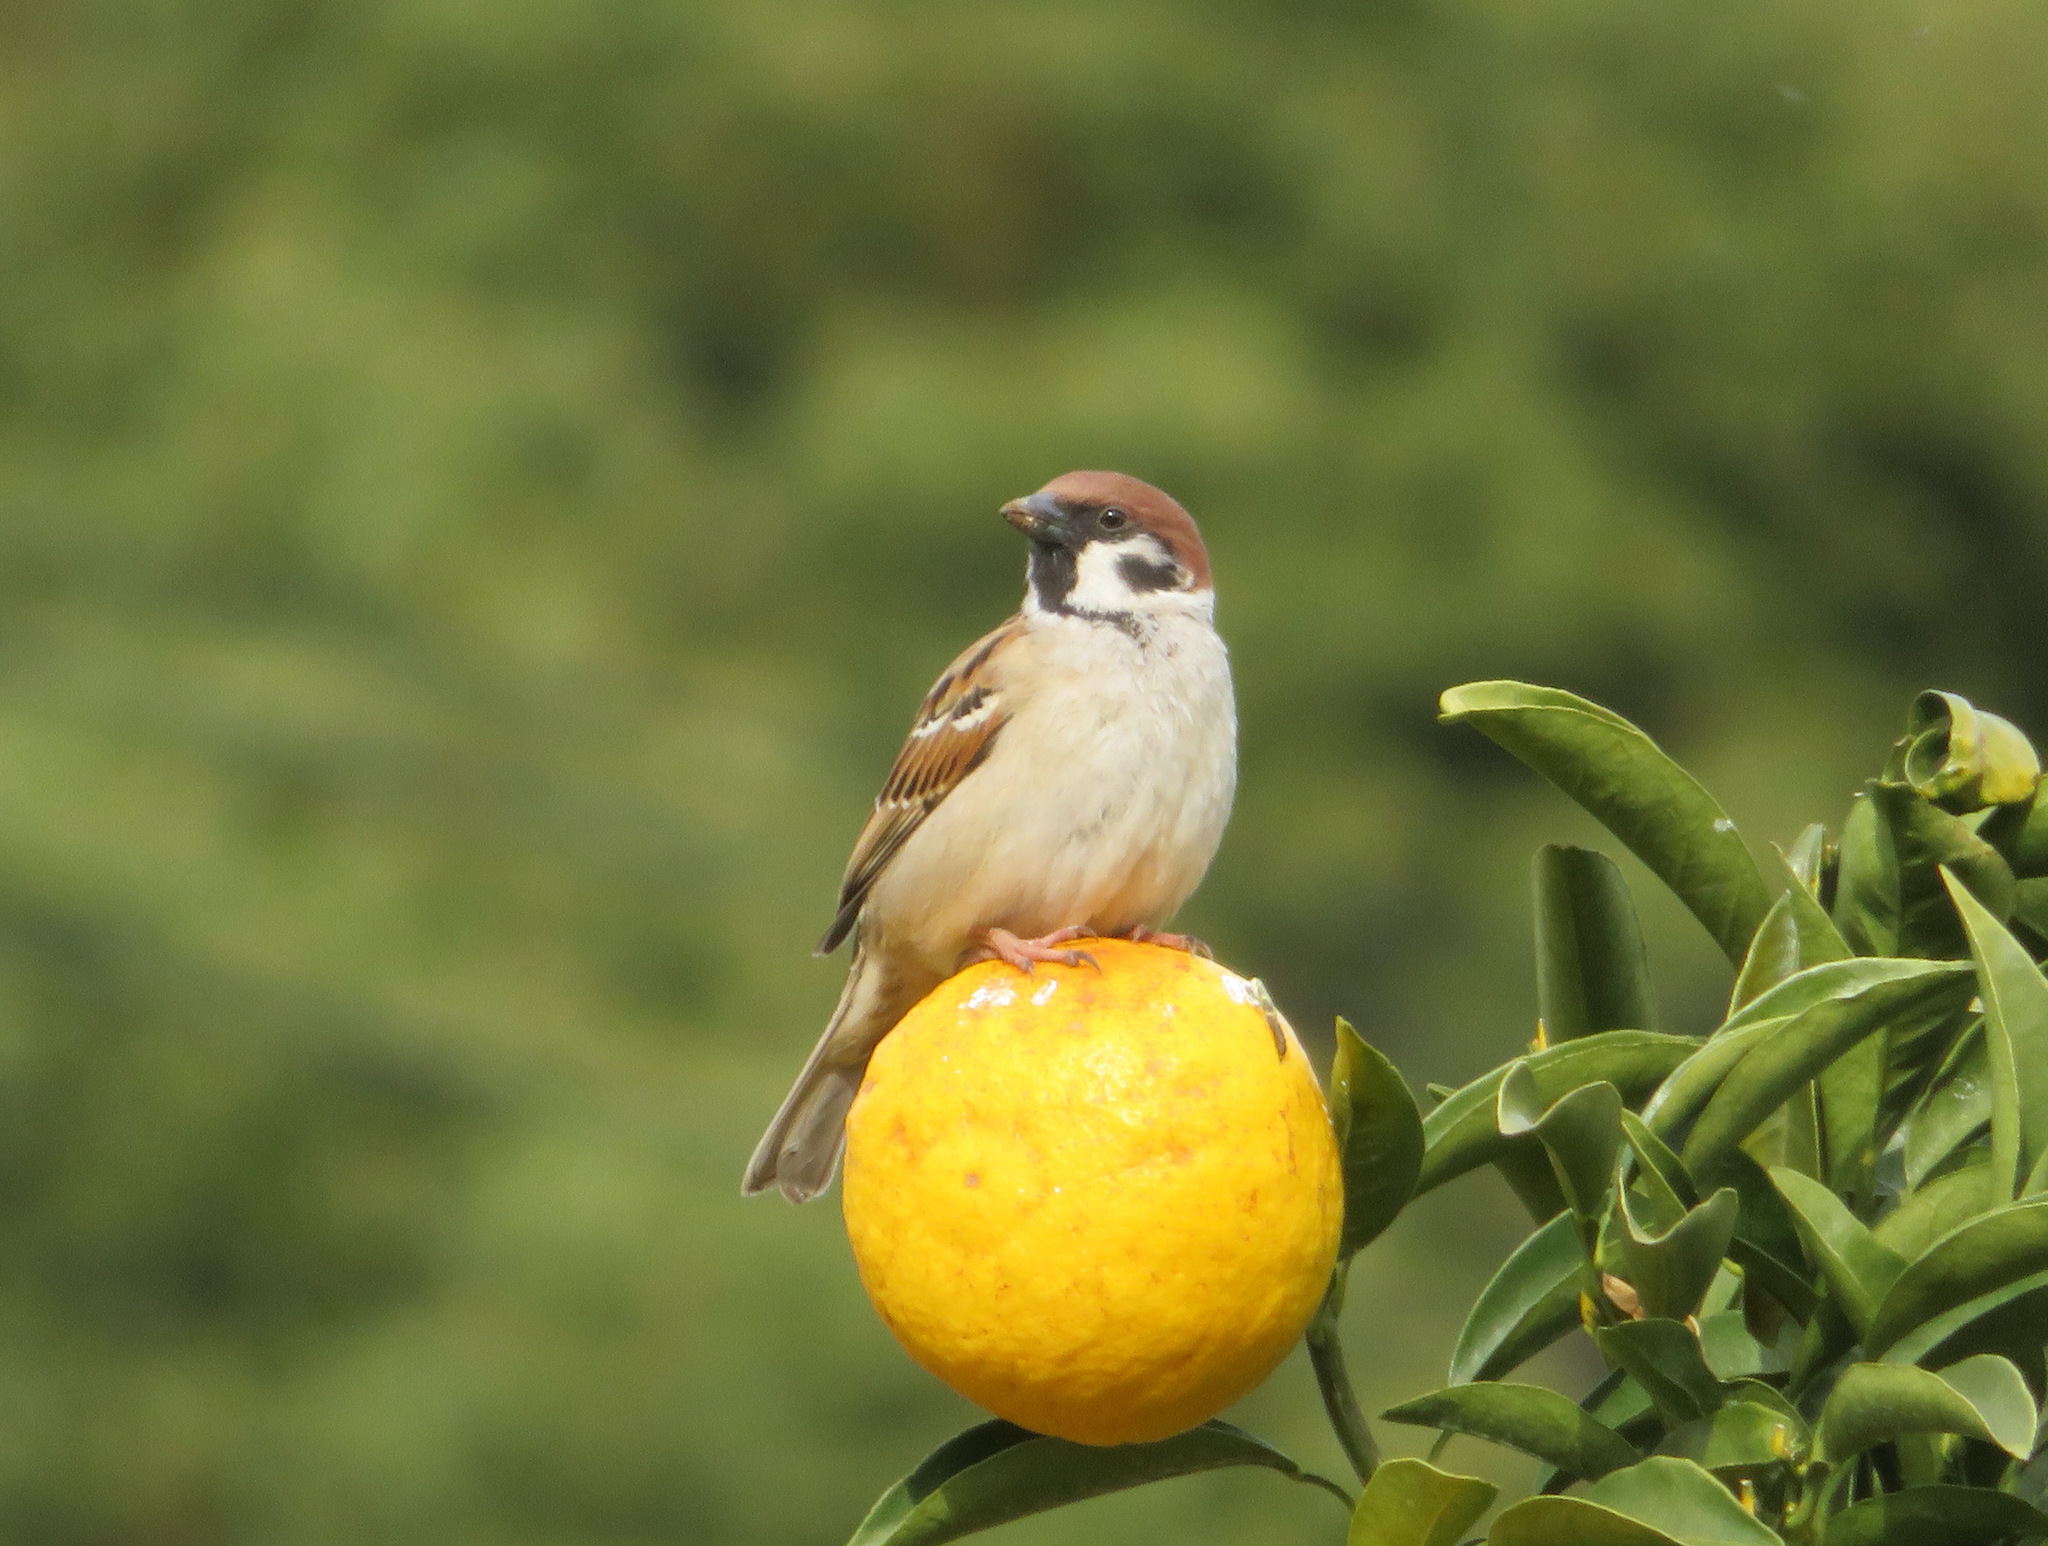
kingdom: Animalia
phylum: Chordata
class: Aves
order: Passeriformes
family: Passeridae
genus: Passer
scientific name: Passer montanus
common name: Eurasian tree sparrow
